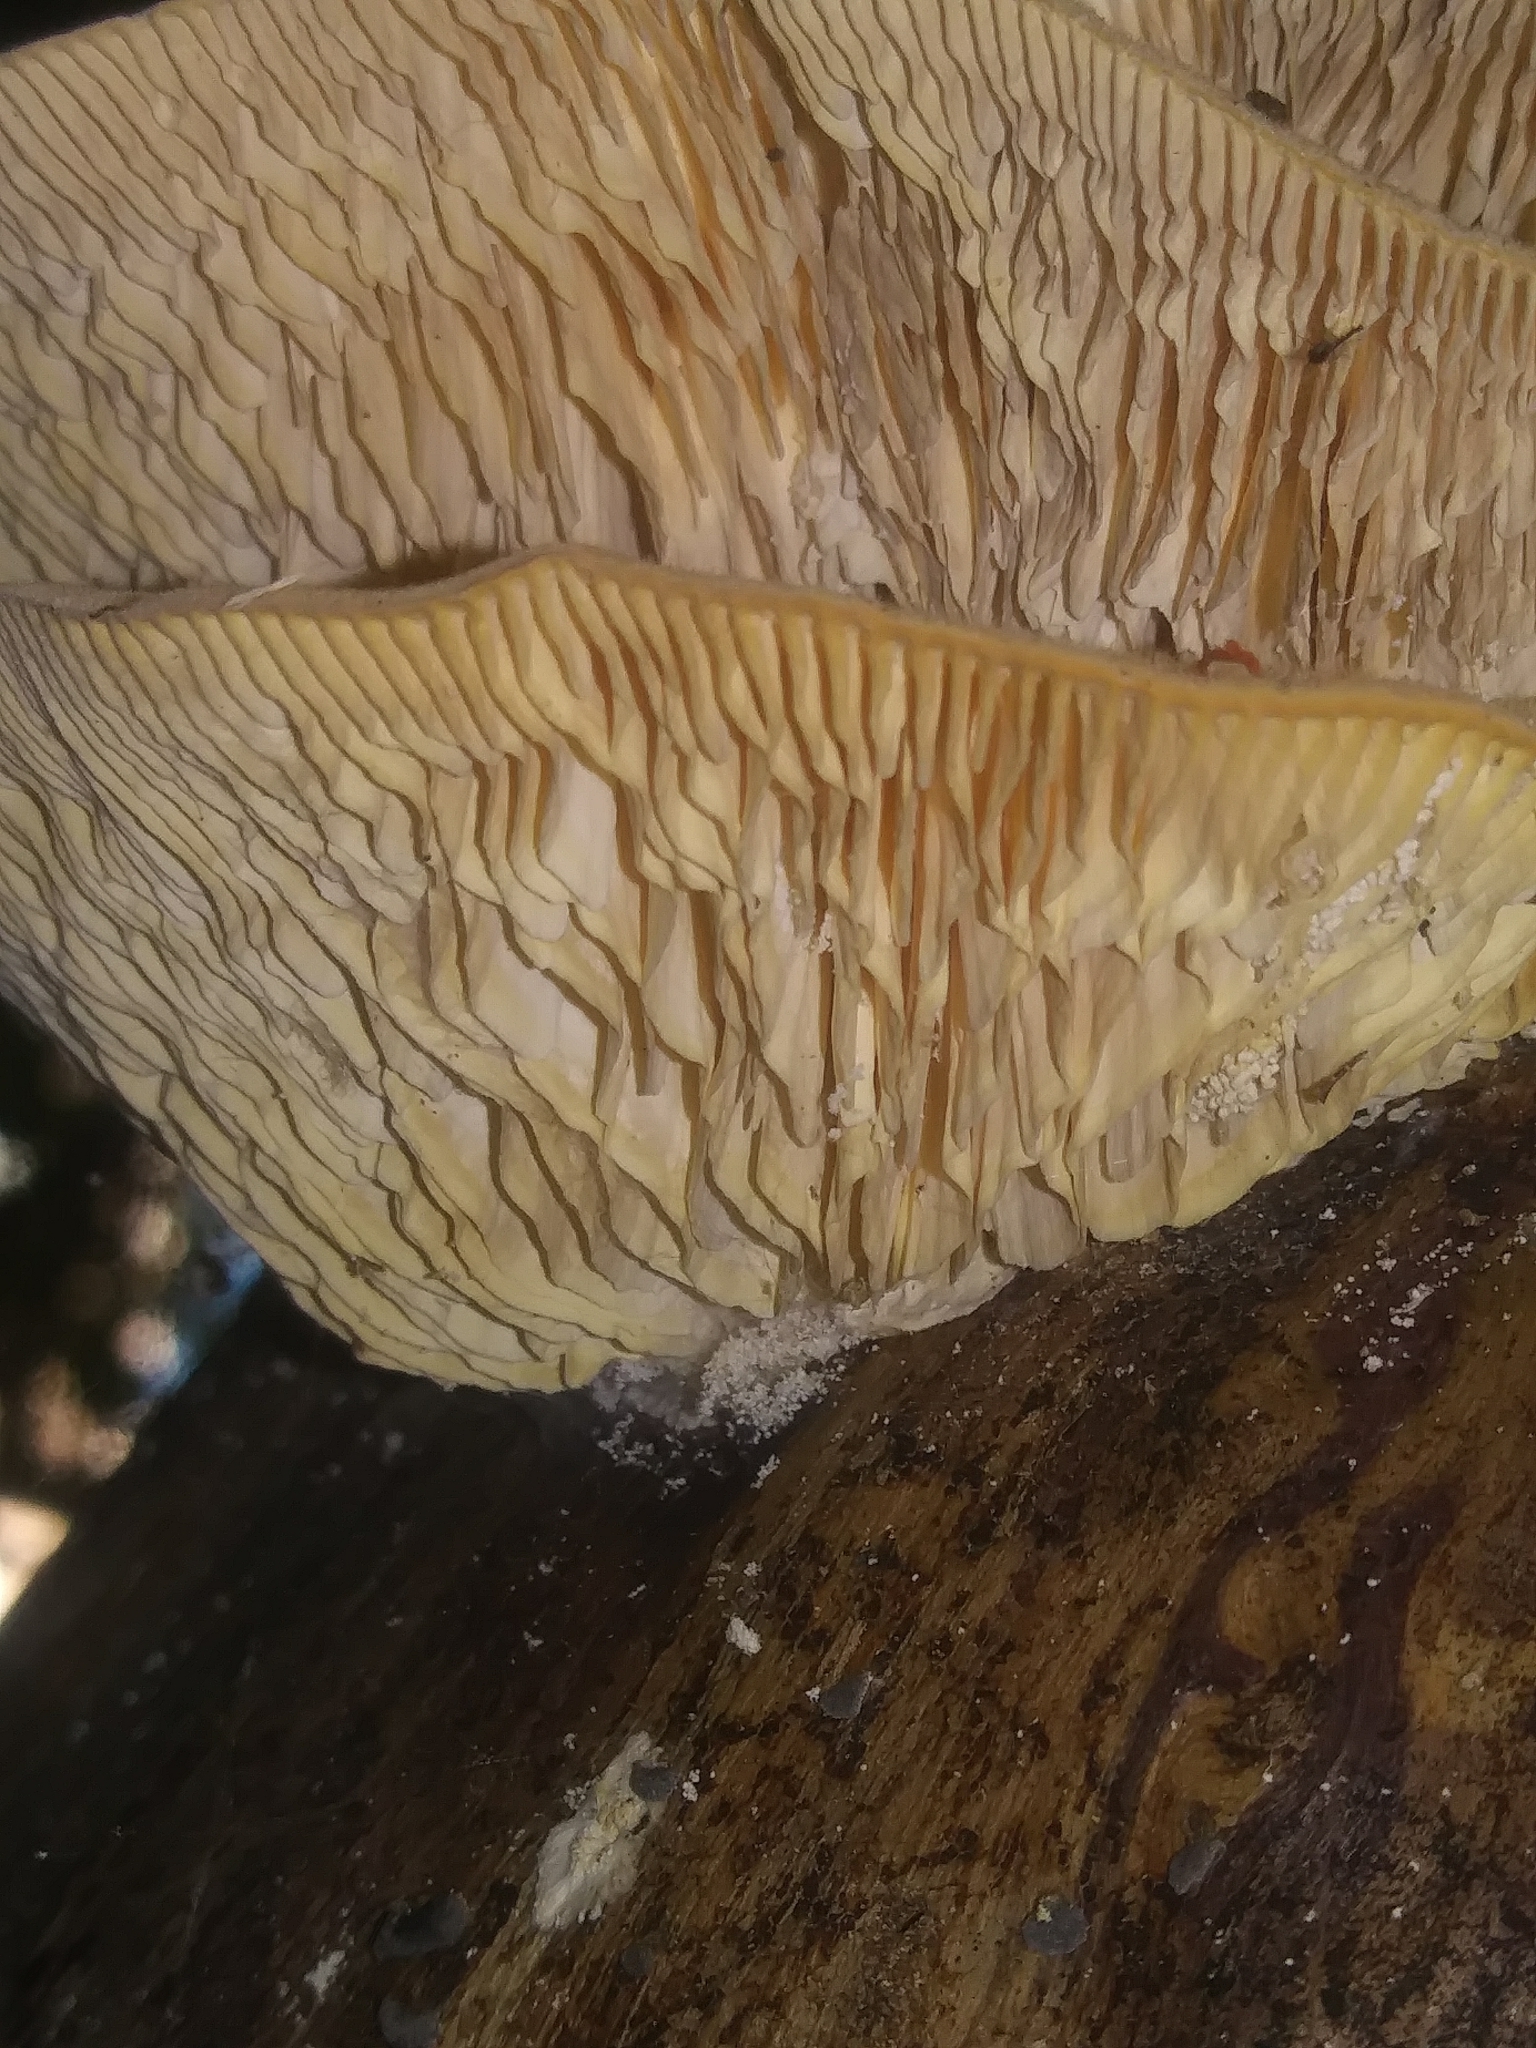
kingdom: Fungi
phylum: Basidiomycota
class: Agaricomycetes
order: Polyporales
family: Polyporaceae
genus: Lenzites
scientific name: Lenzites betulinus
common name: Birch mazegill
